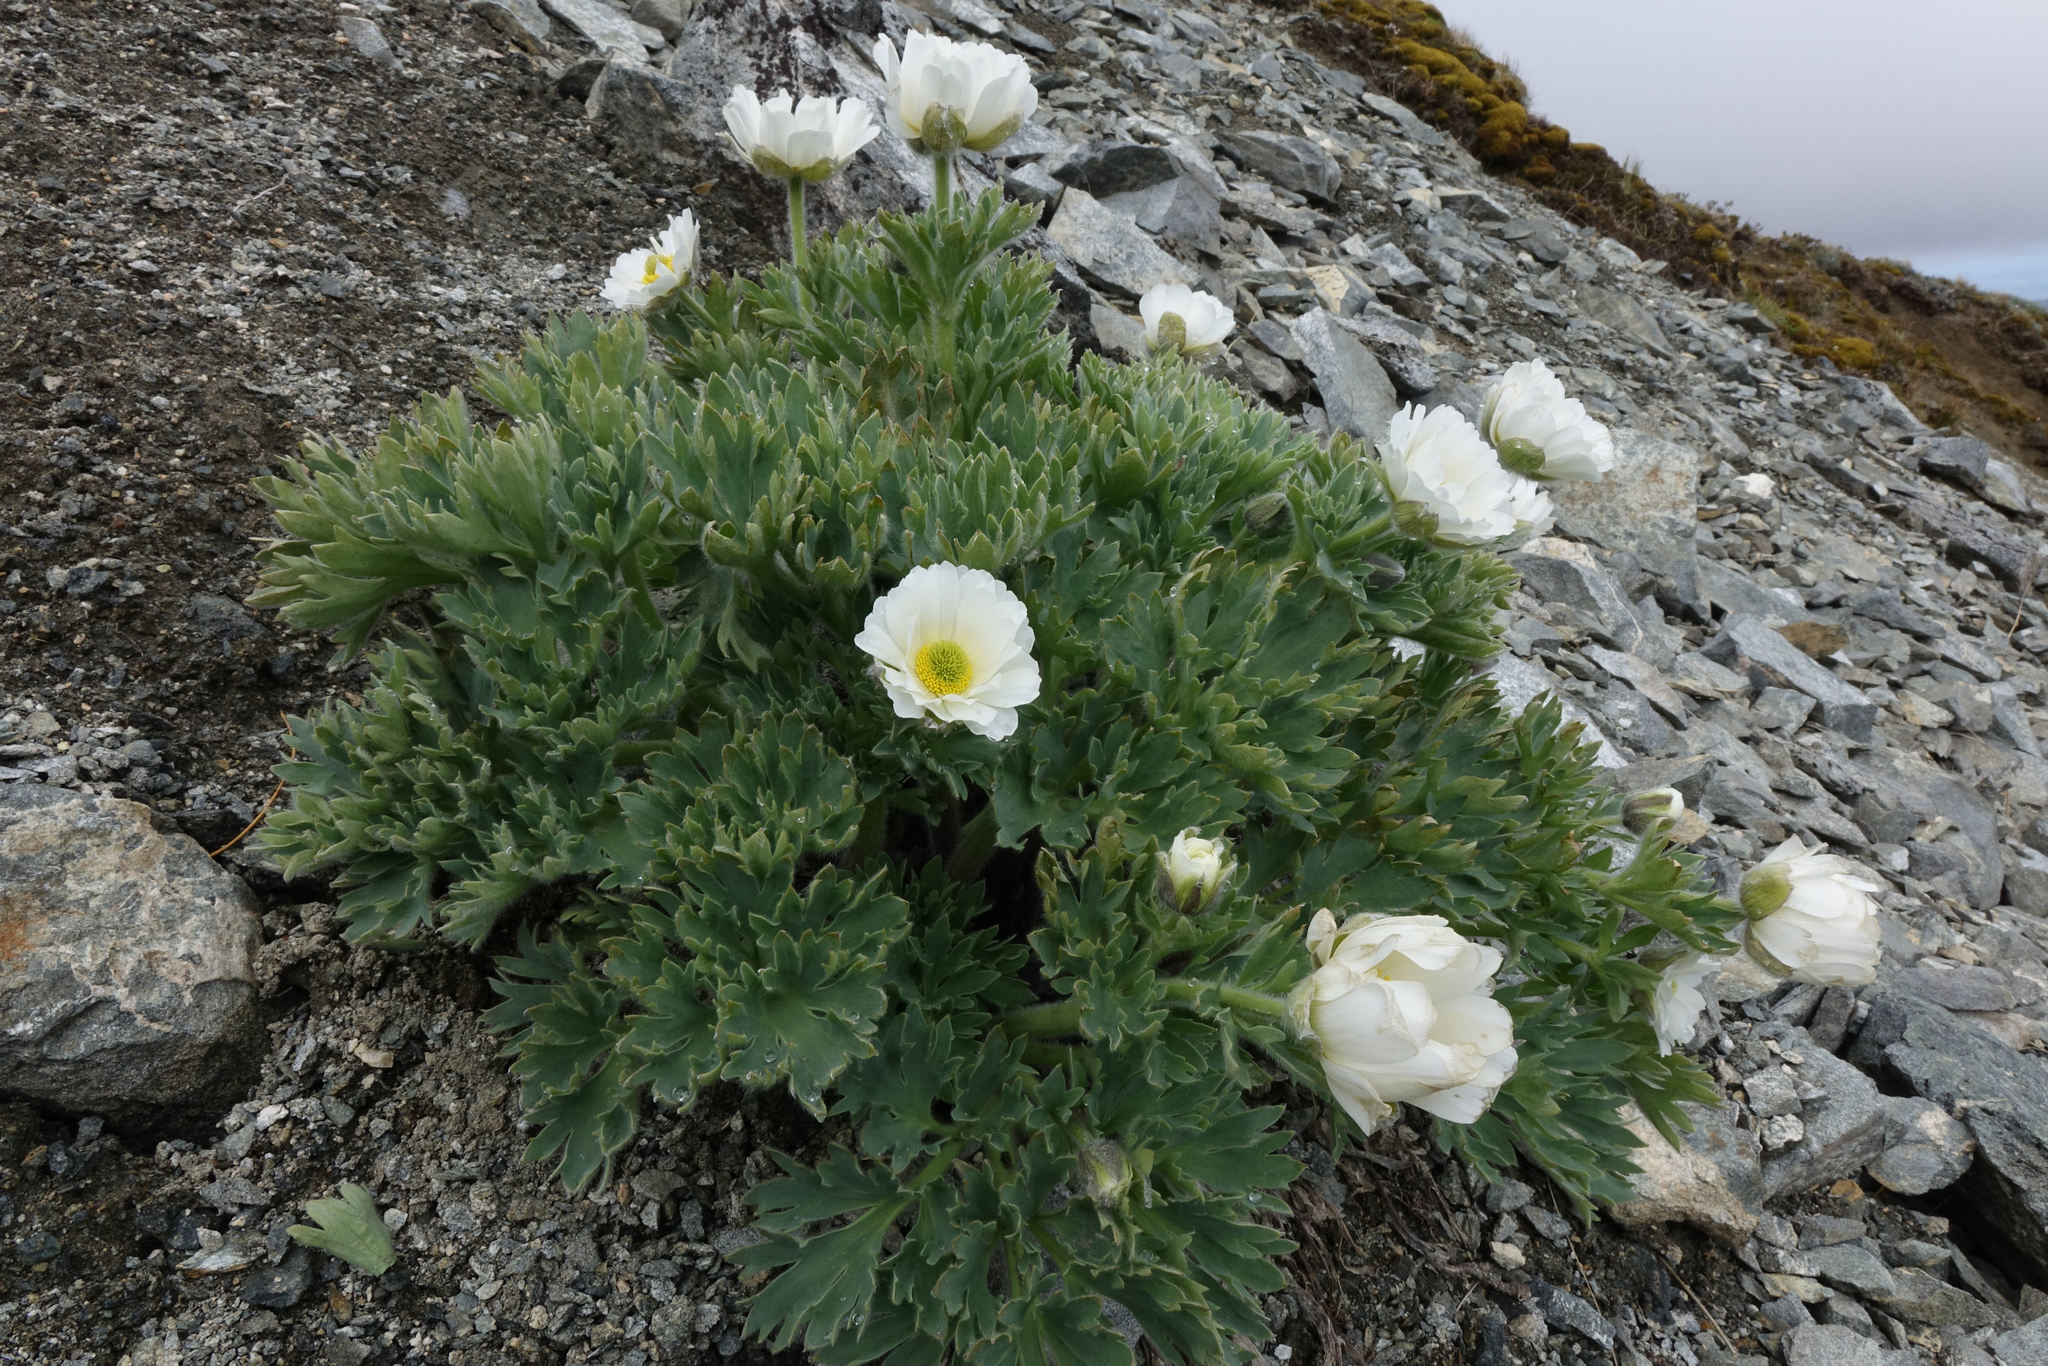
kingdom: Plantae
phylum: Tracheophyta
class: Magnoliopsida
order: Ranunculales
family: Ranunculaceae
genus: Ranunculus
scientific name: Ranunculus buchananii
